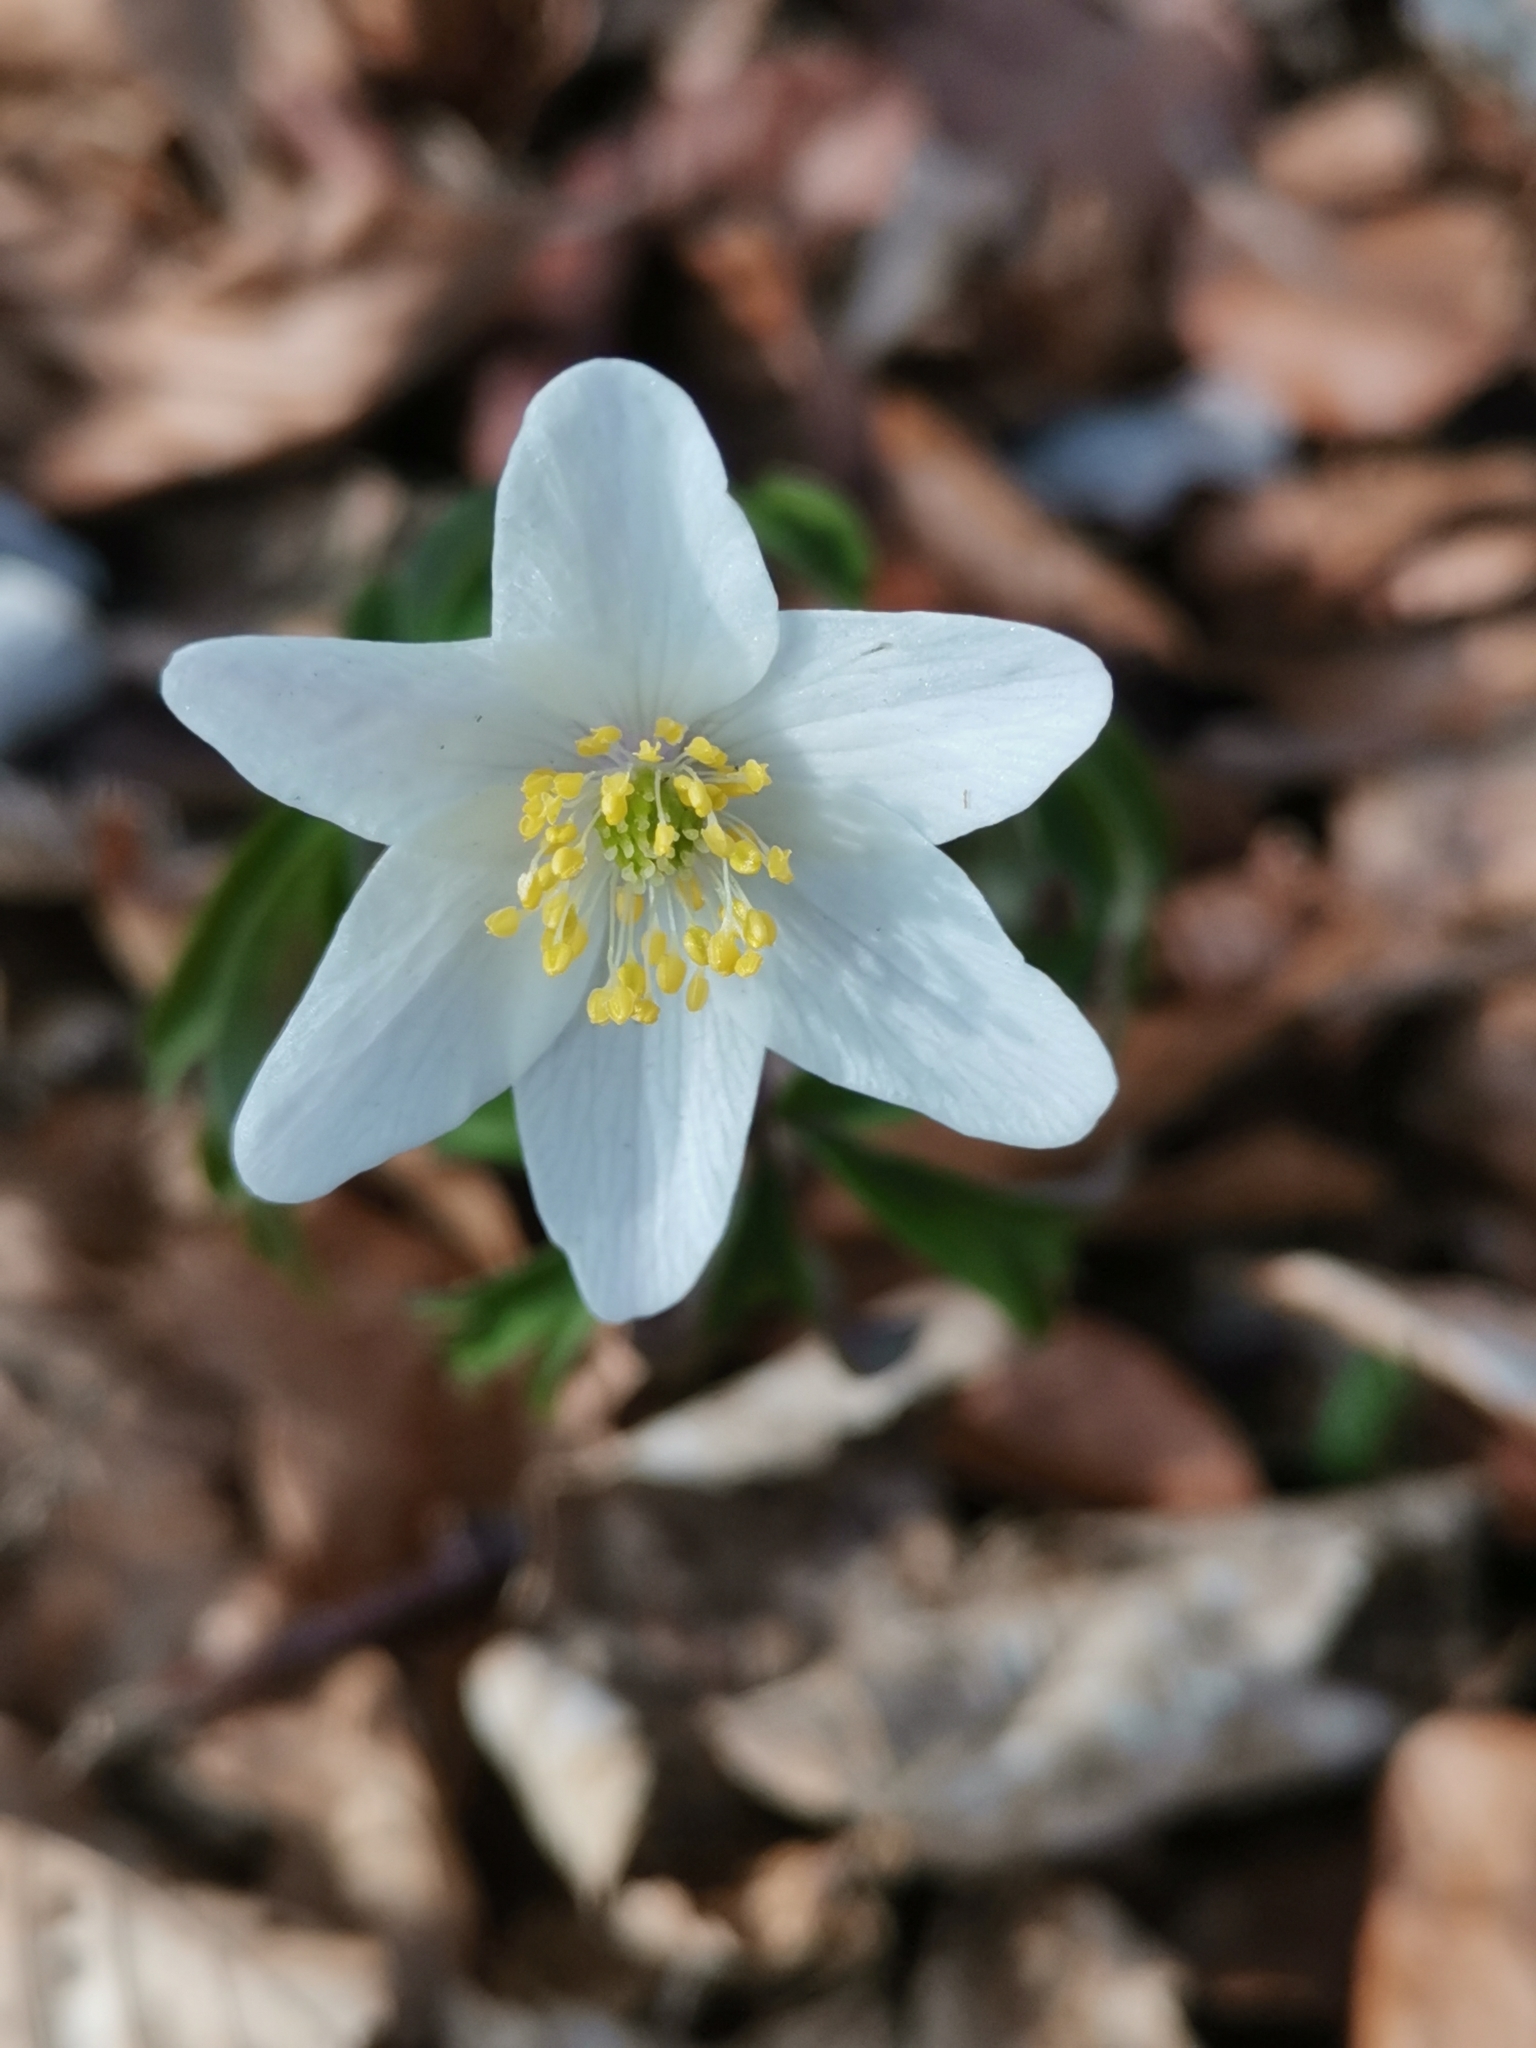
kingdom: Plantae
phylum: Tracheophyta
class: Magnoliopsida
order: Ranunculales
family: Ranunculaceae
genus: Anemone
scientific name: Anemone nemorosa
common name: Wood anemone
